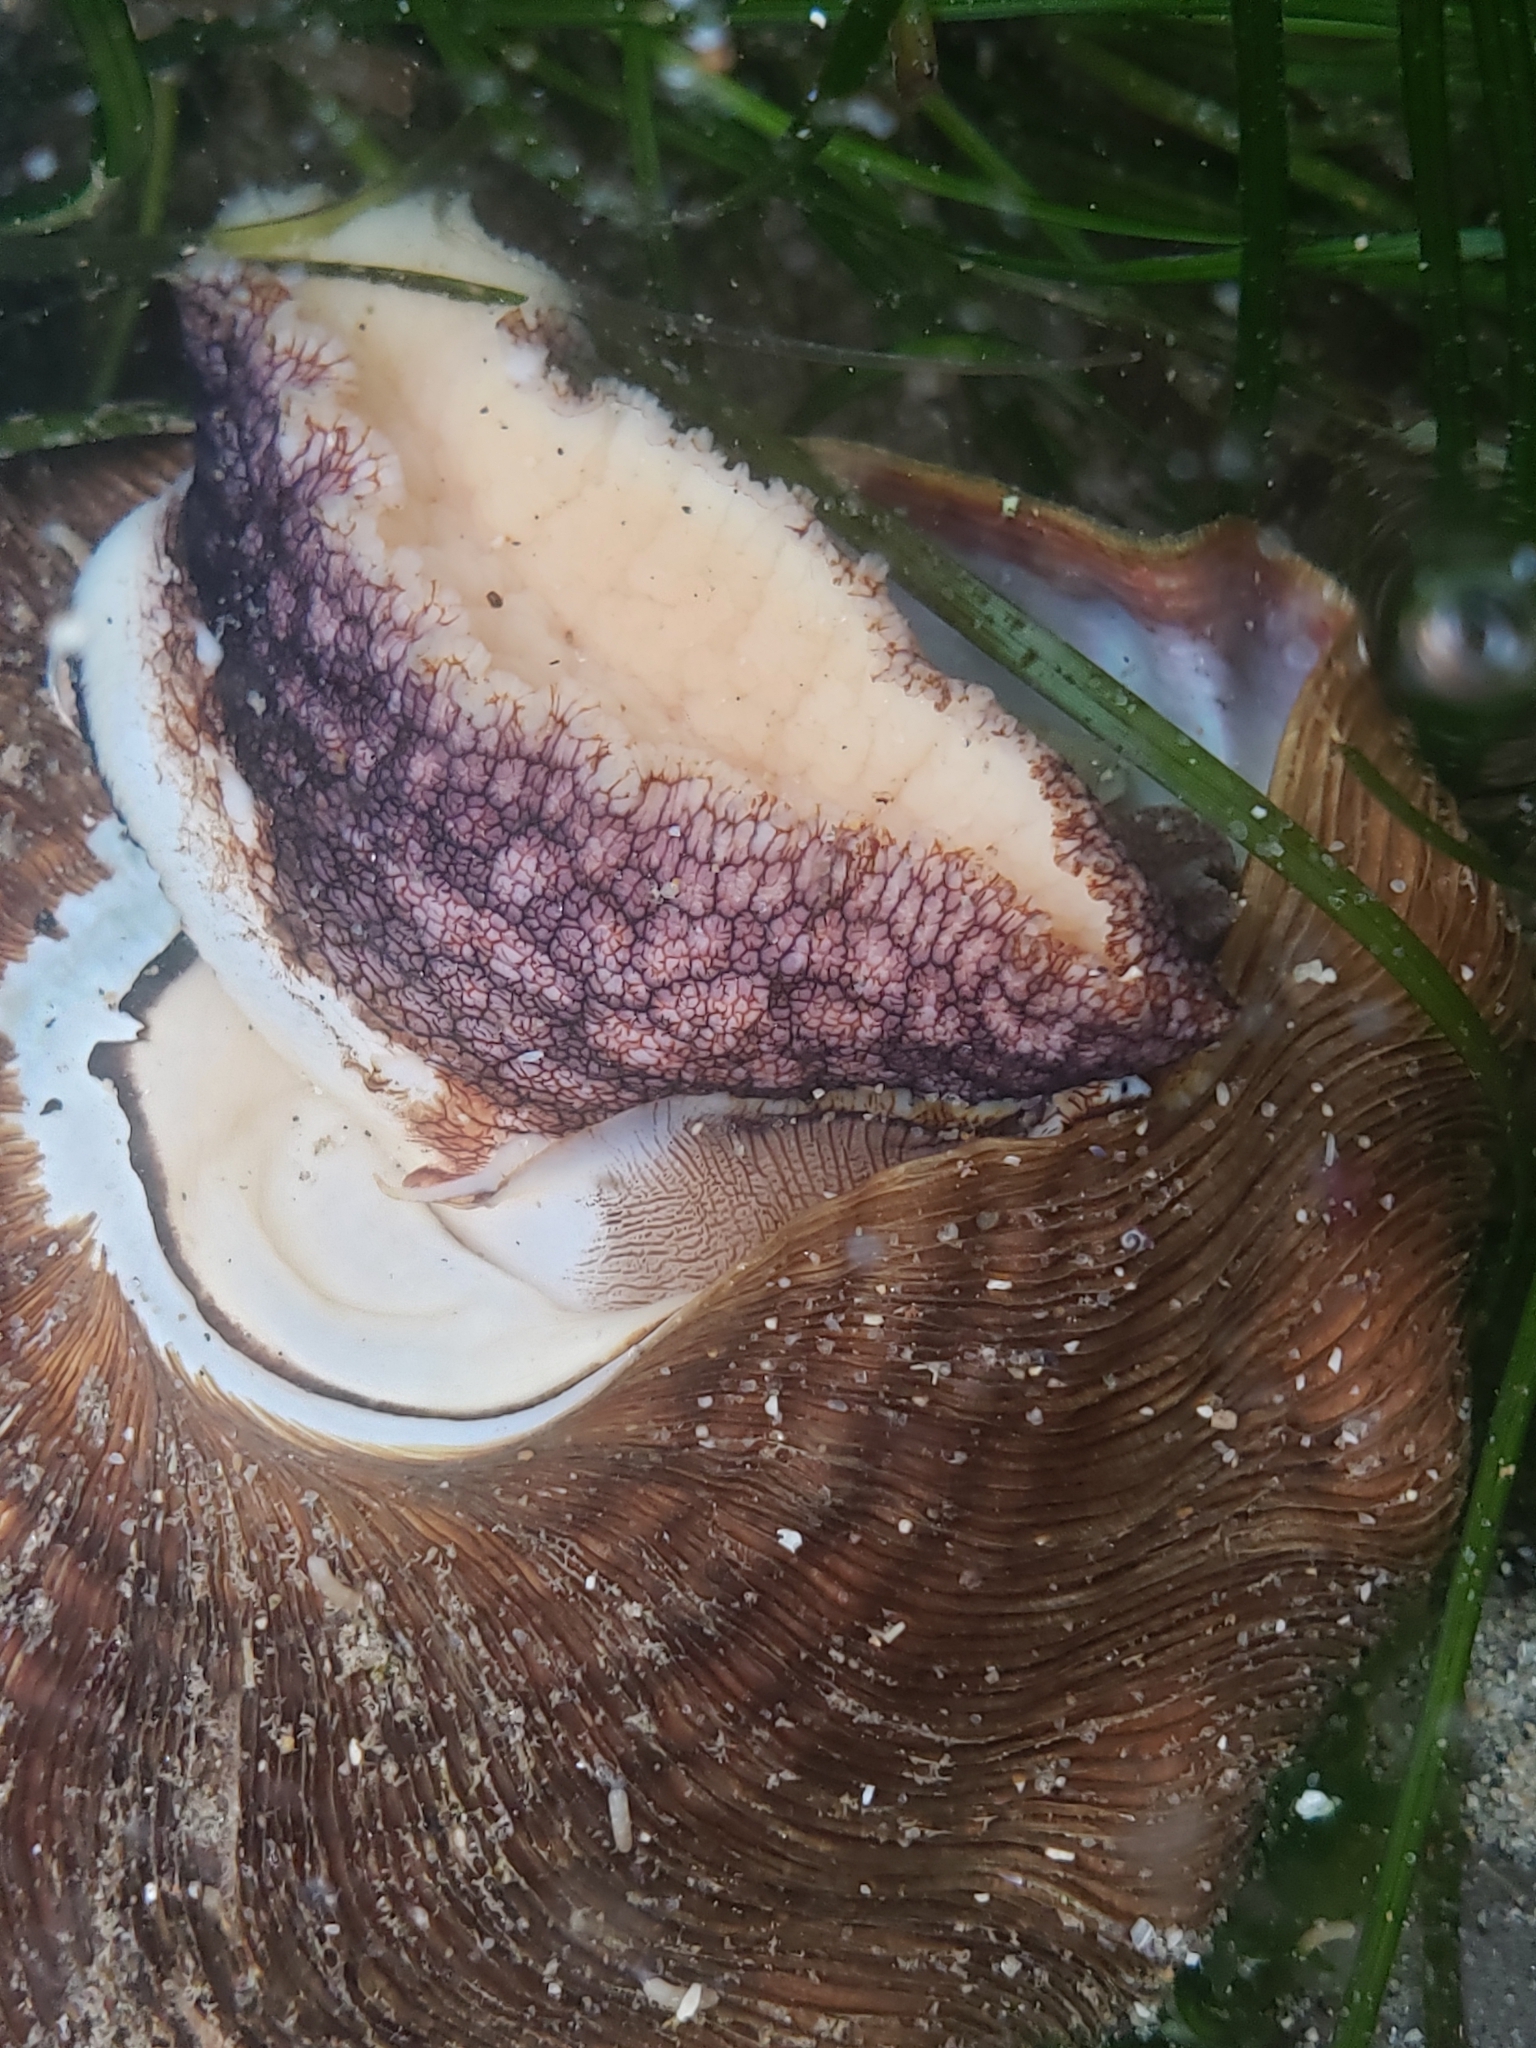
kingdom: Animalia
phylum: Mollusca
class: Gastropoda
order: Trochida
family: Turbinidae
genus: Megastraea
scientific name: Megastraea undosa
